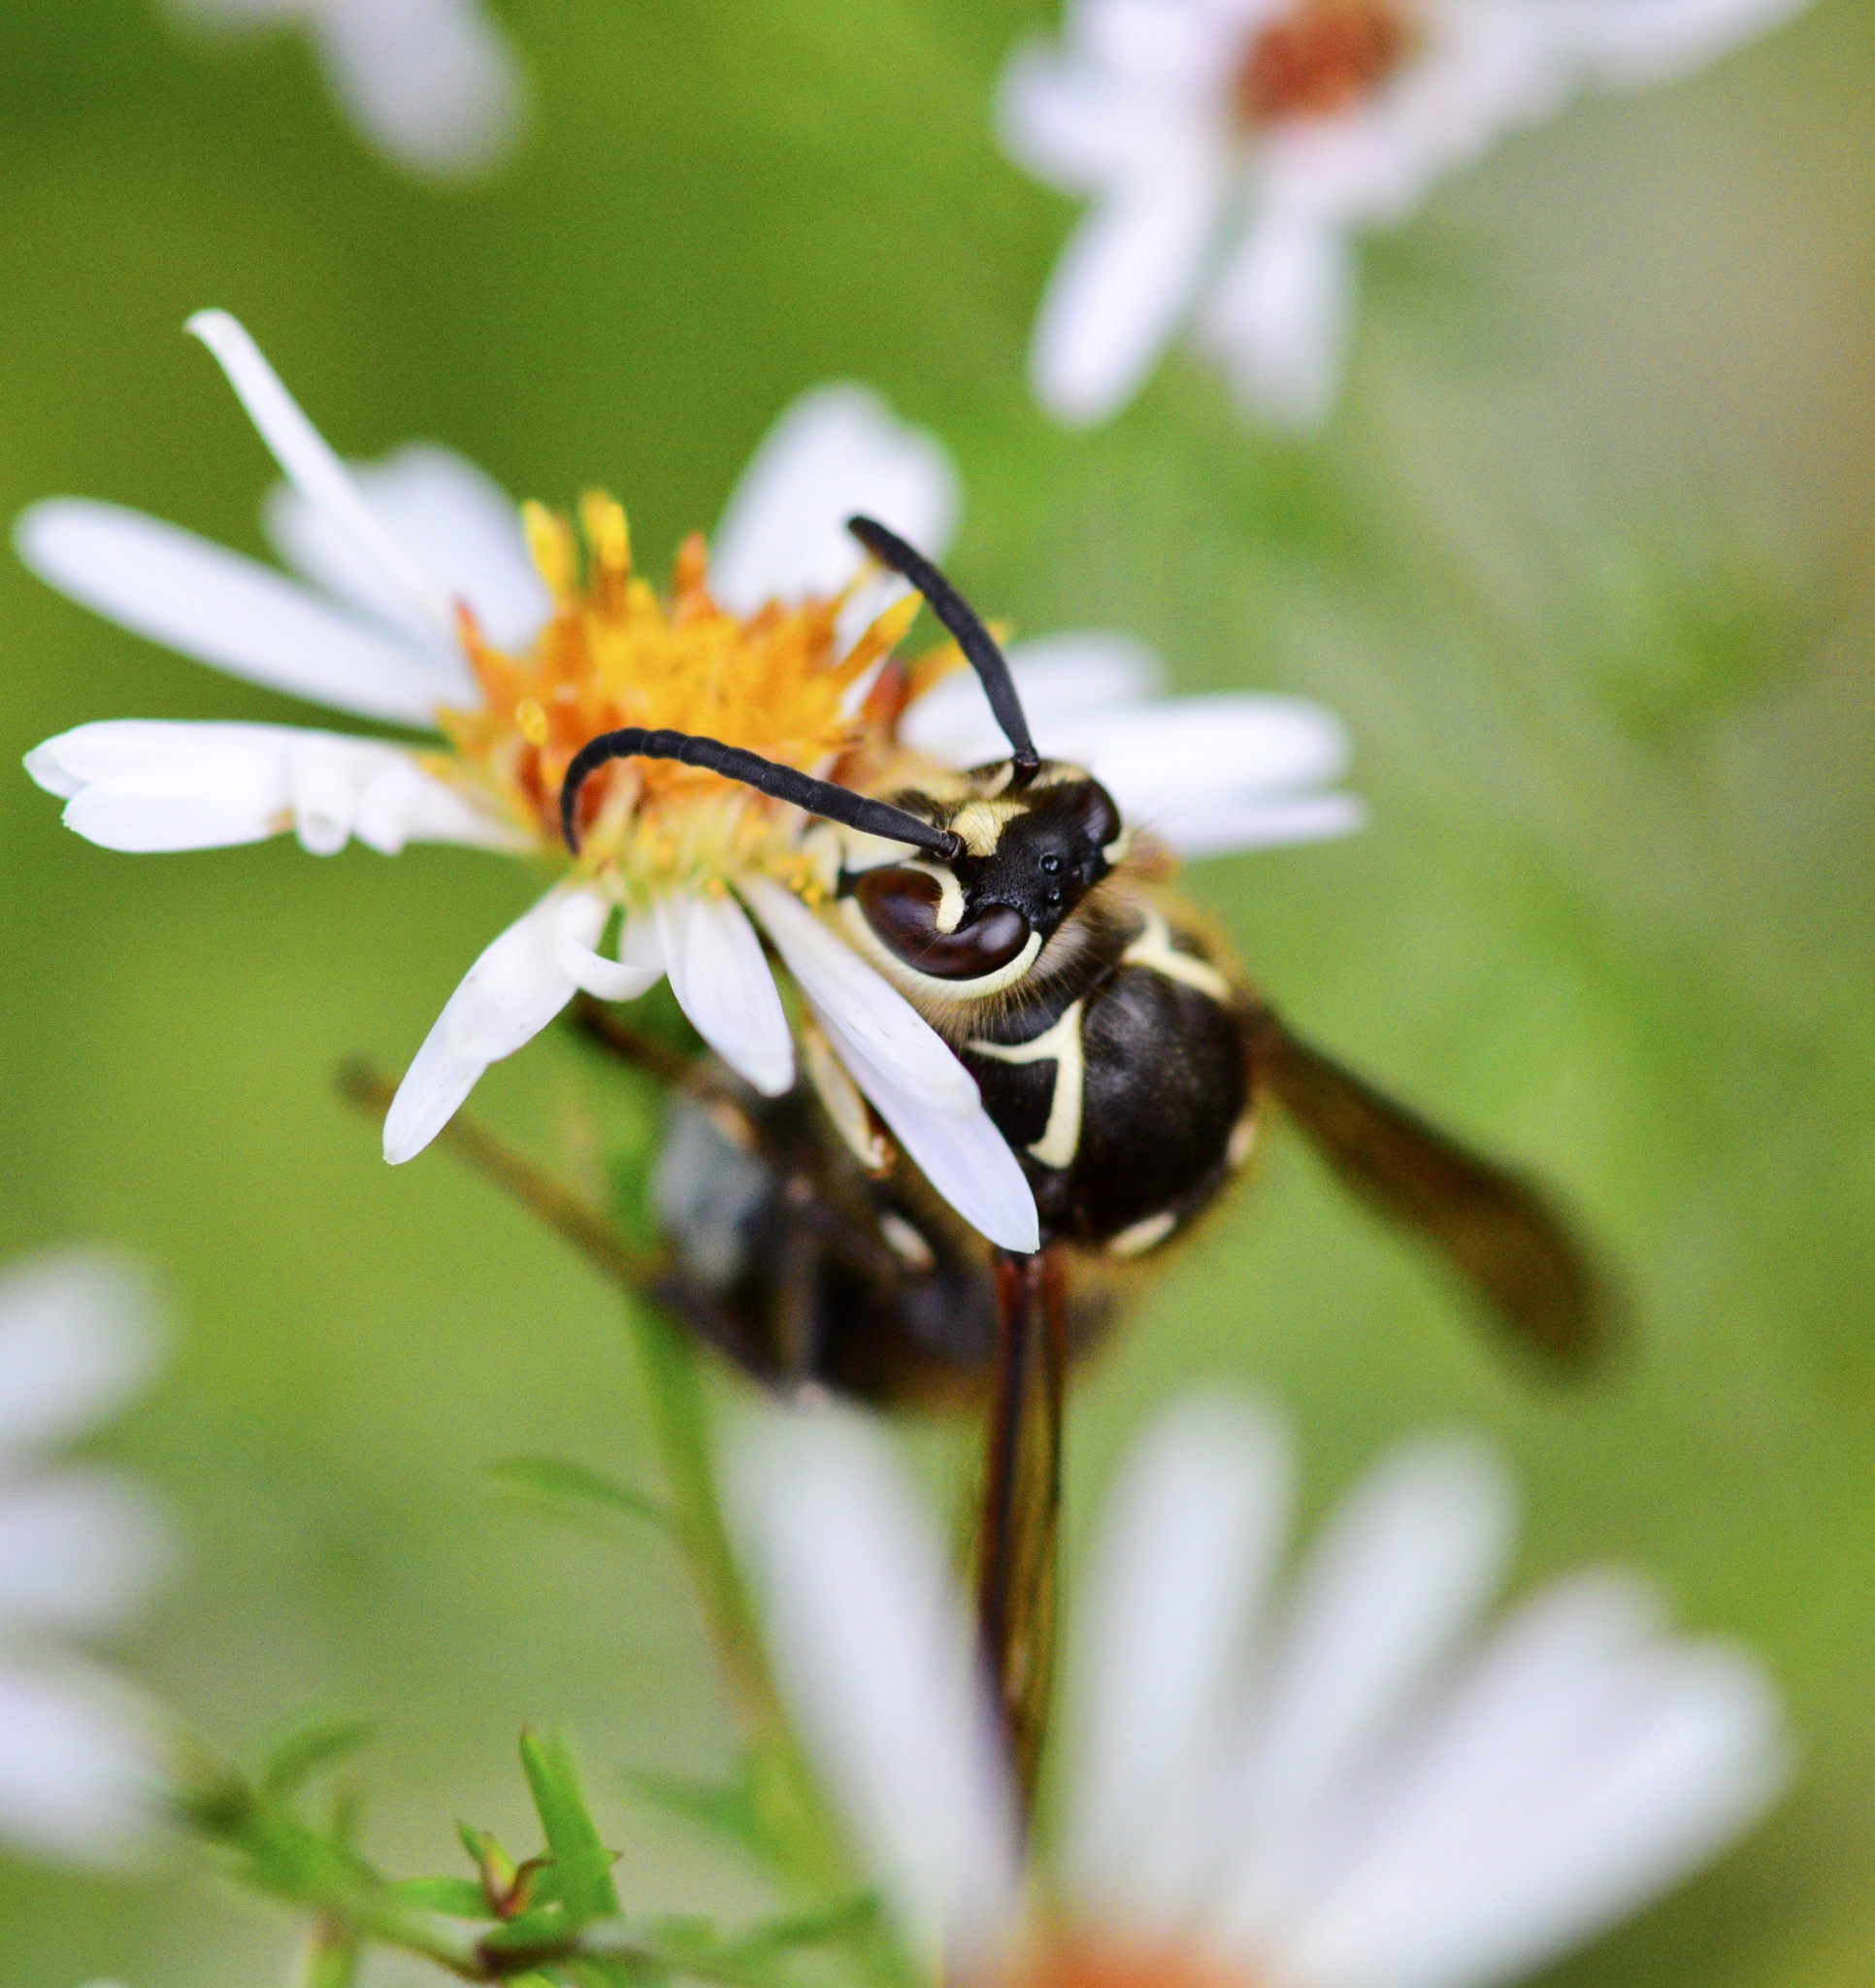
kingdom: Animalia
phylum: Arthropoda
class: Insecta
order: Hymenoptera
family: Vespidae
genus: Dolichovespula
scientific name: Dolichovespula maculata
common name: Bald-faced hornet
